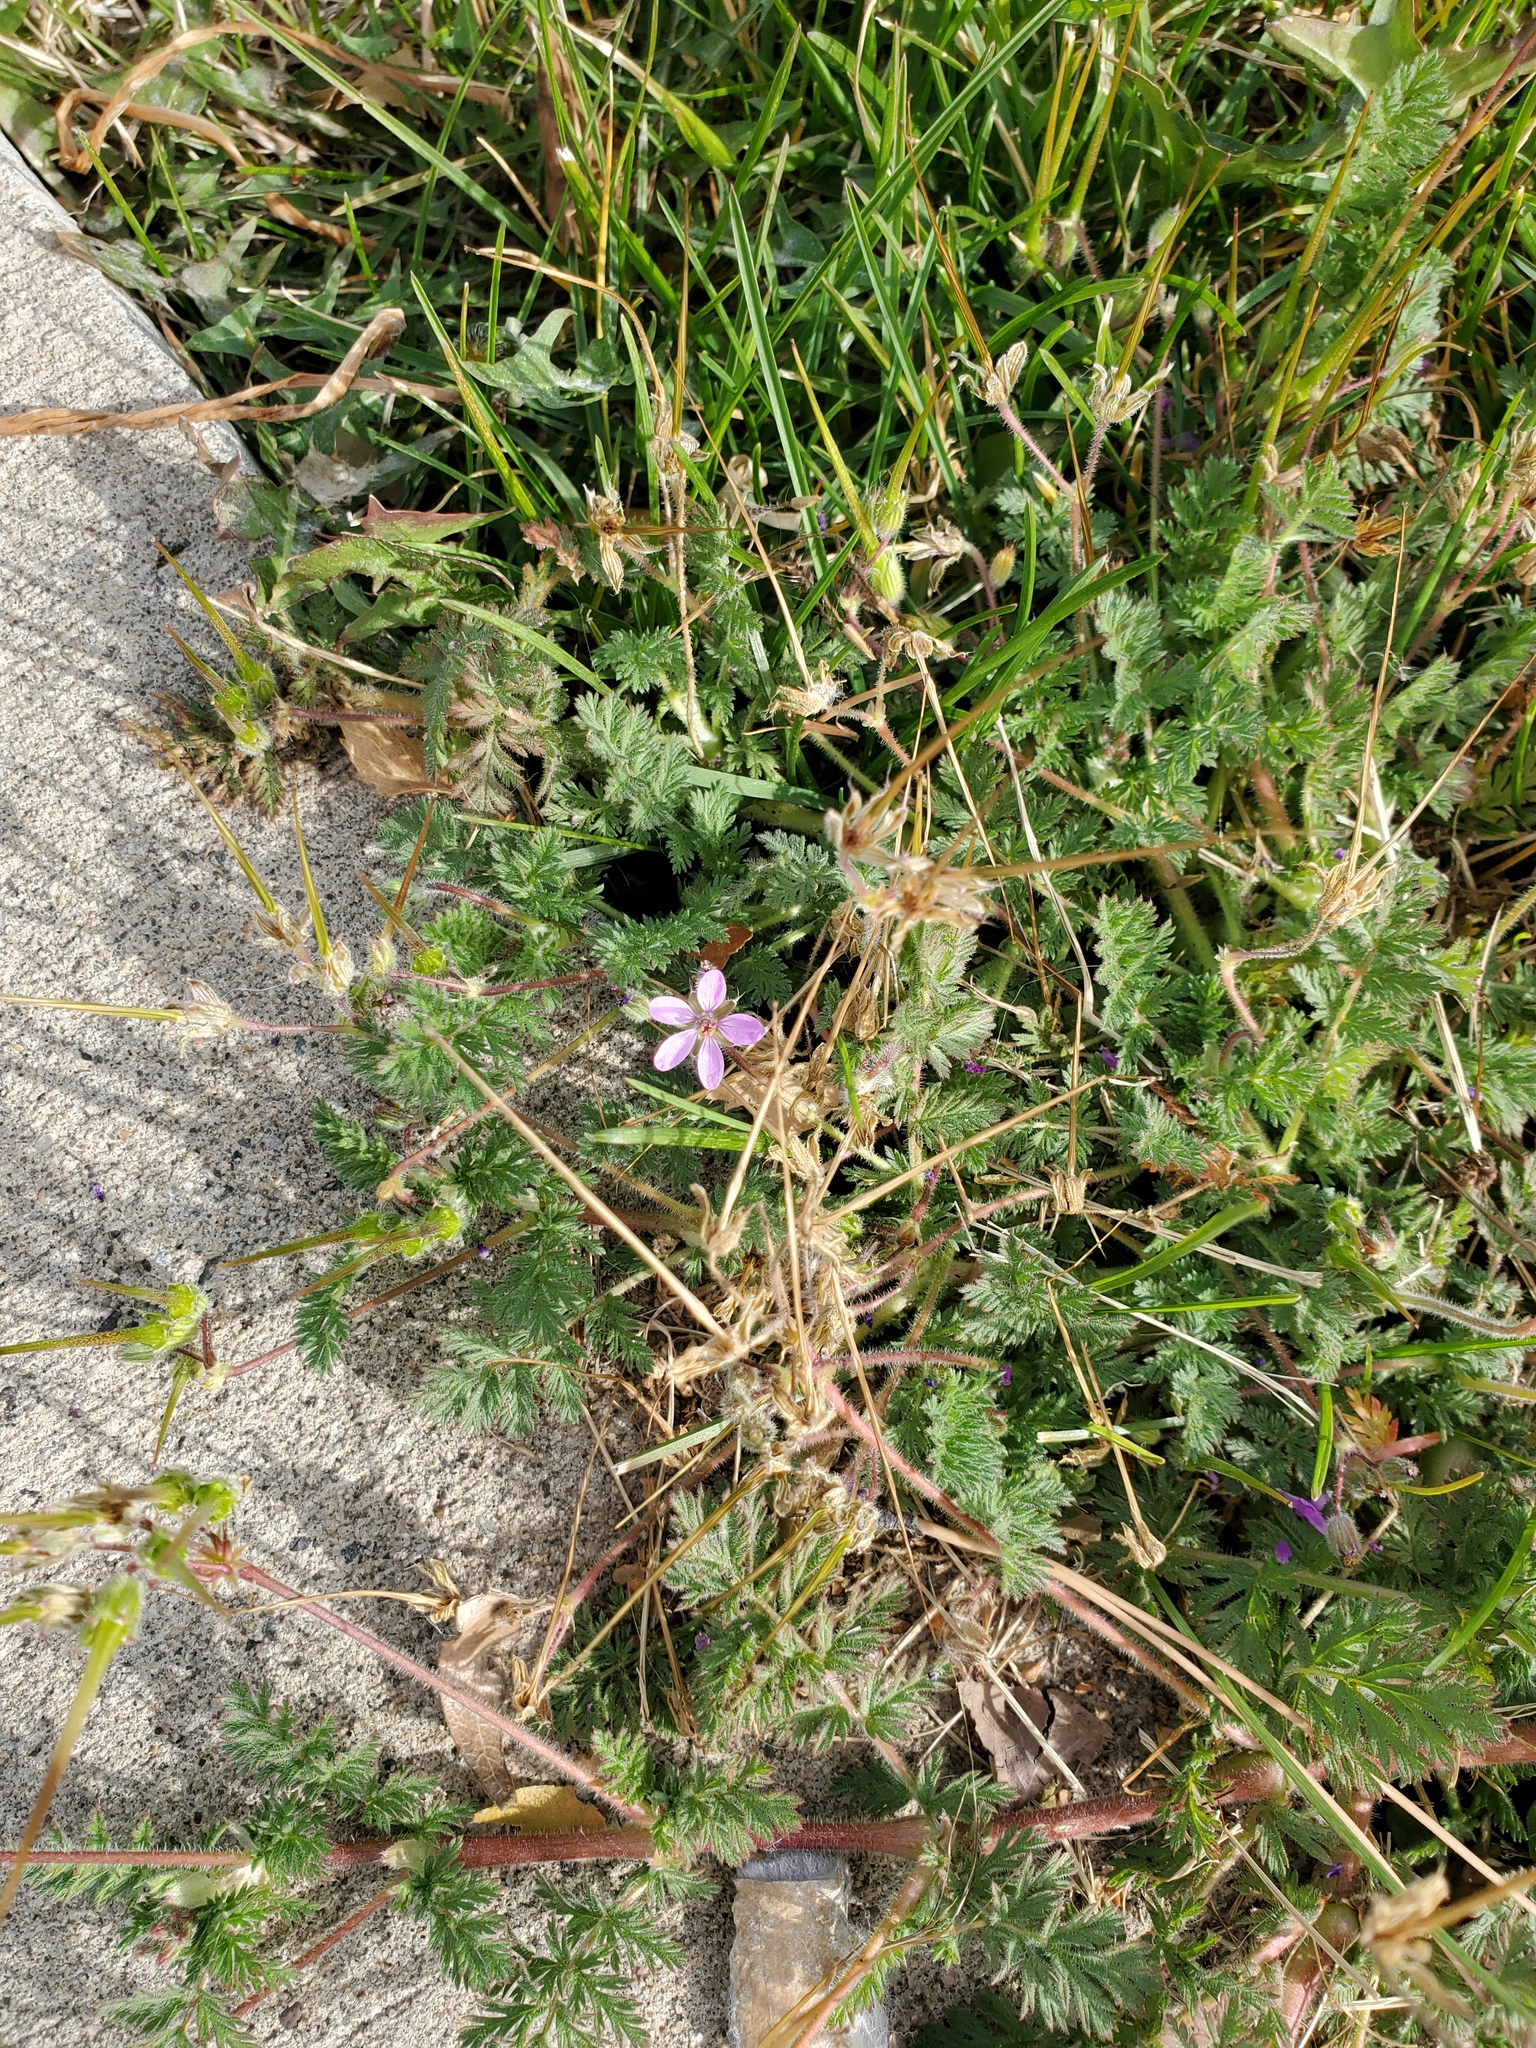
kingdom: Plantae
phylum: Tracheophyta
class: Magnoliopsida
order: Geraniales
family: Geraniaceae
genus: Erodium
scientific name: Erodium cicutarium
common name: Common stork's-bill
